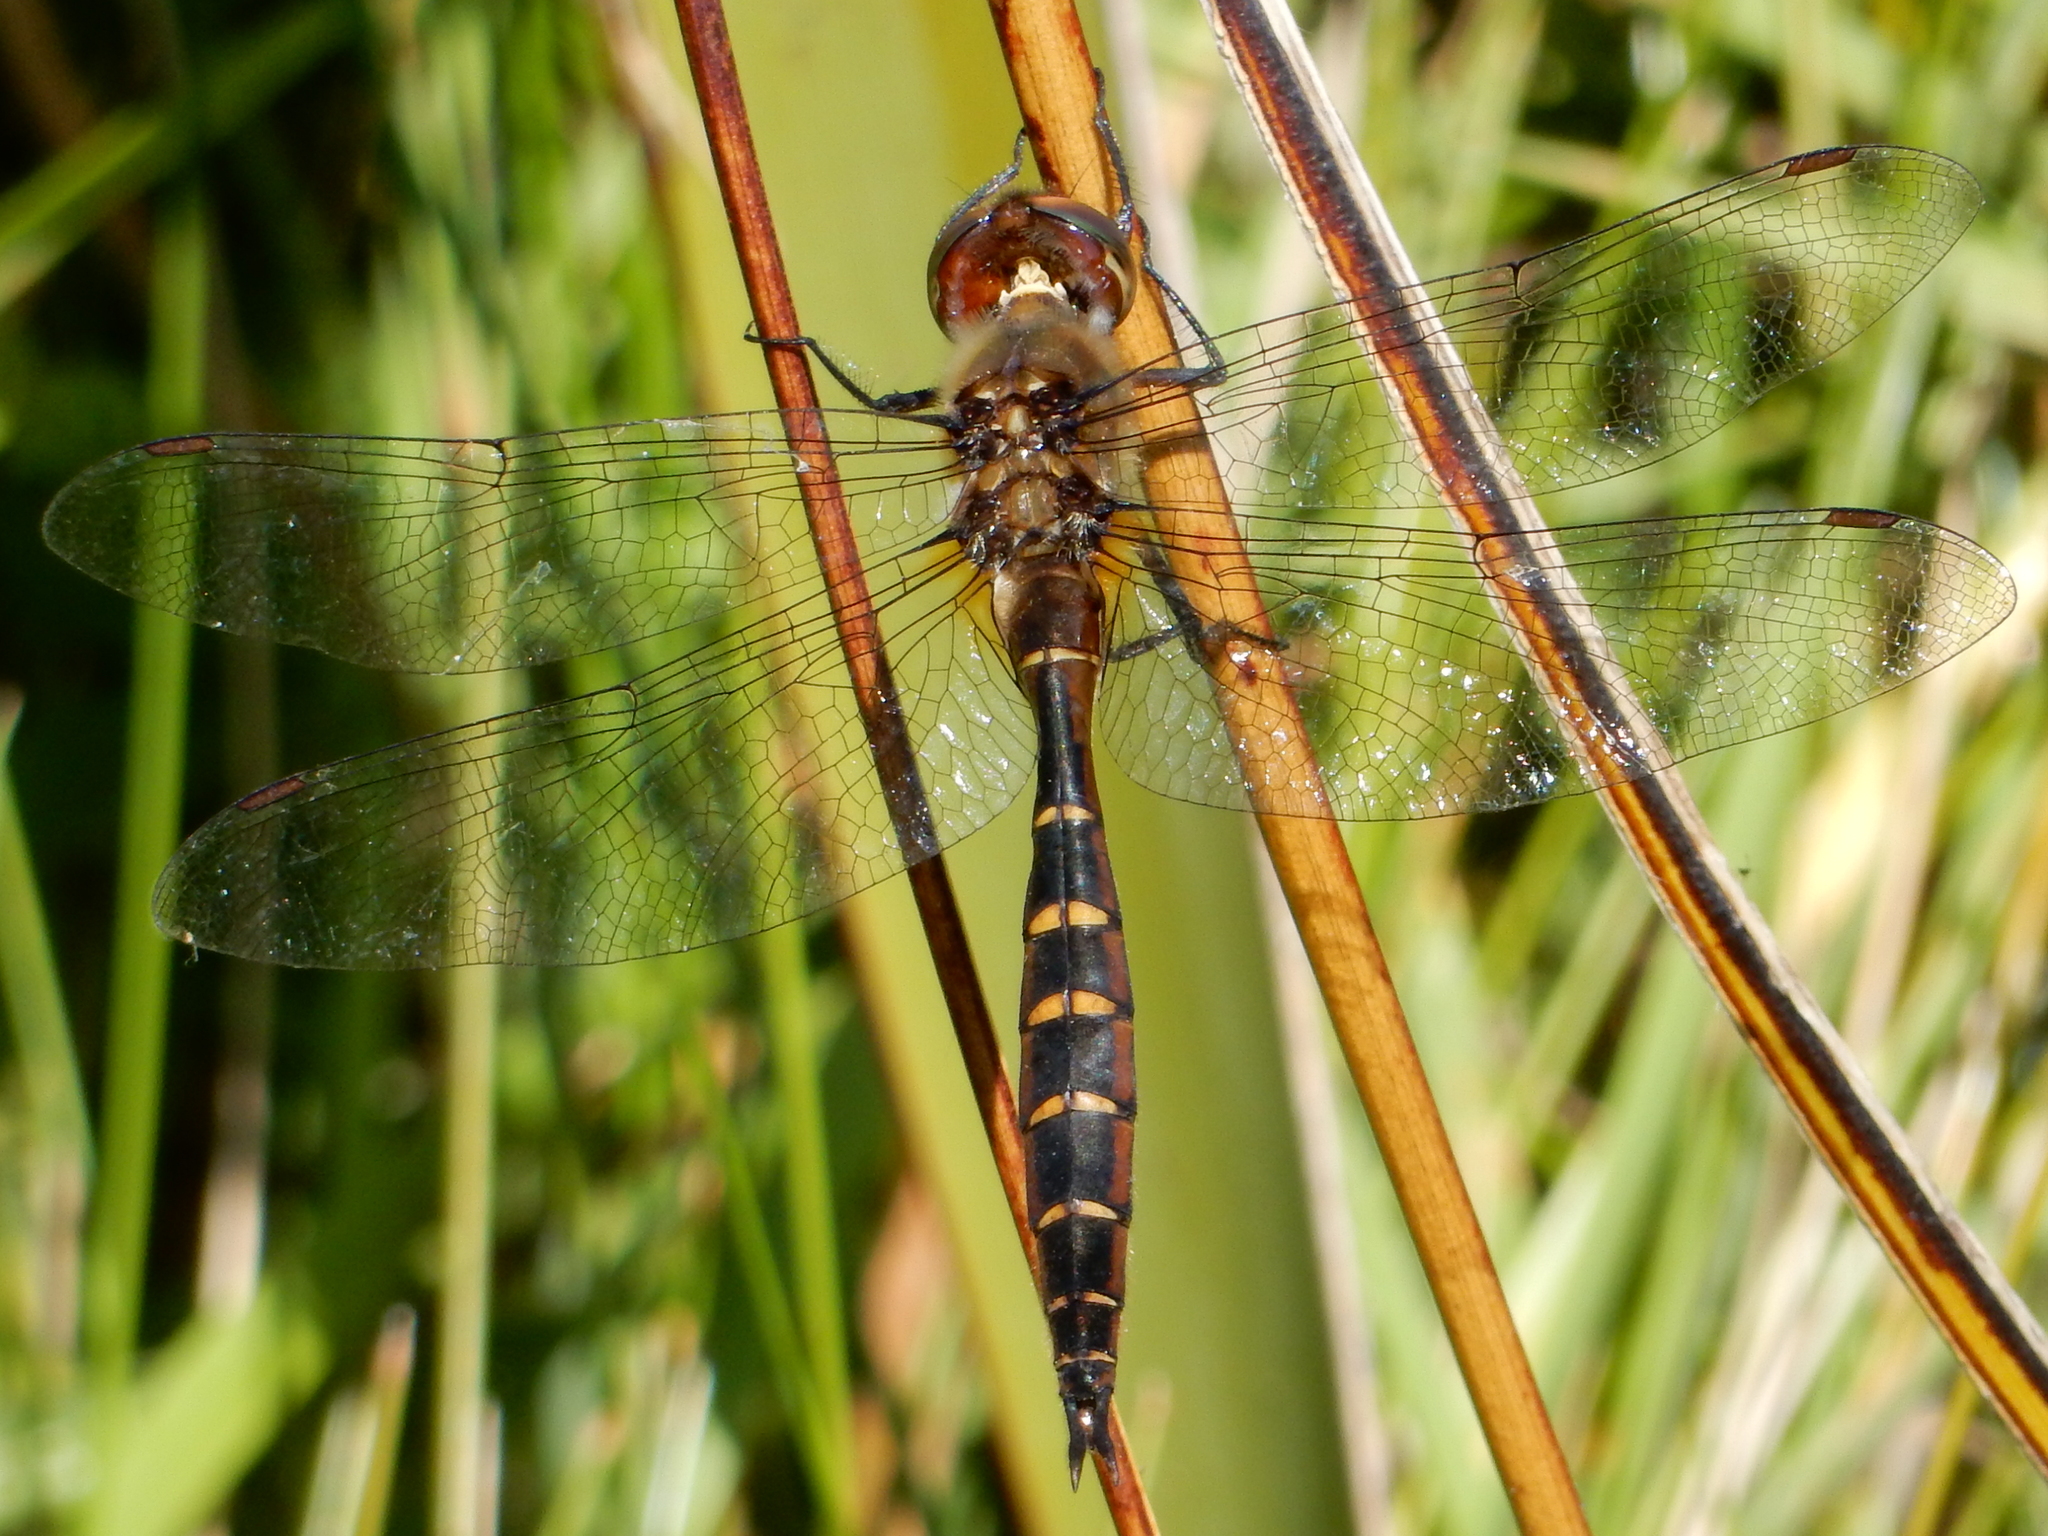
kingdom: Animalia
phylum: Arthropoda
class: Insecta
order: Odonata
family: Corduliidae
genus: Procordulia
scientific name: Procordulia smithii
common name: Ranger dragonfly
